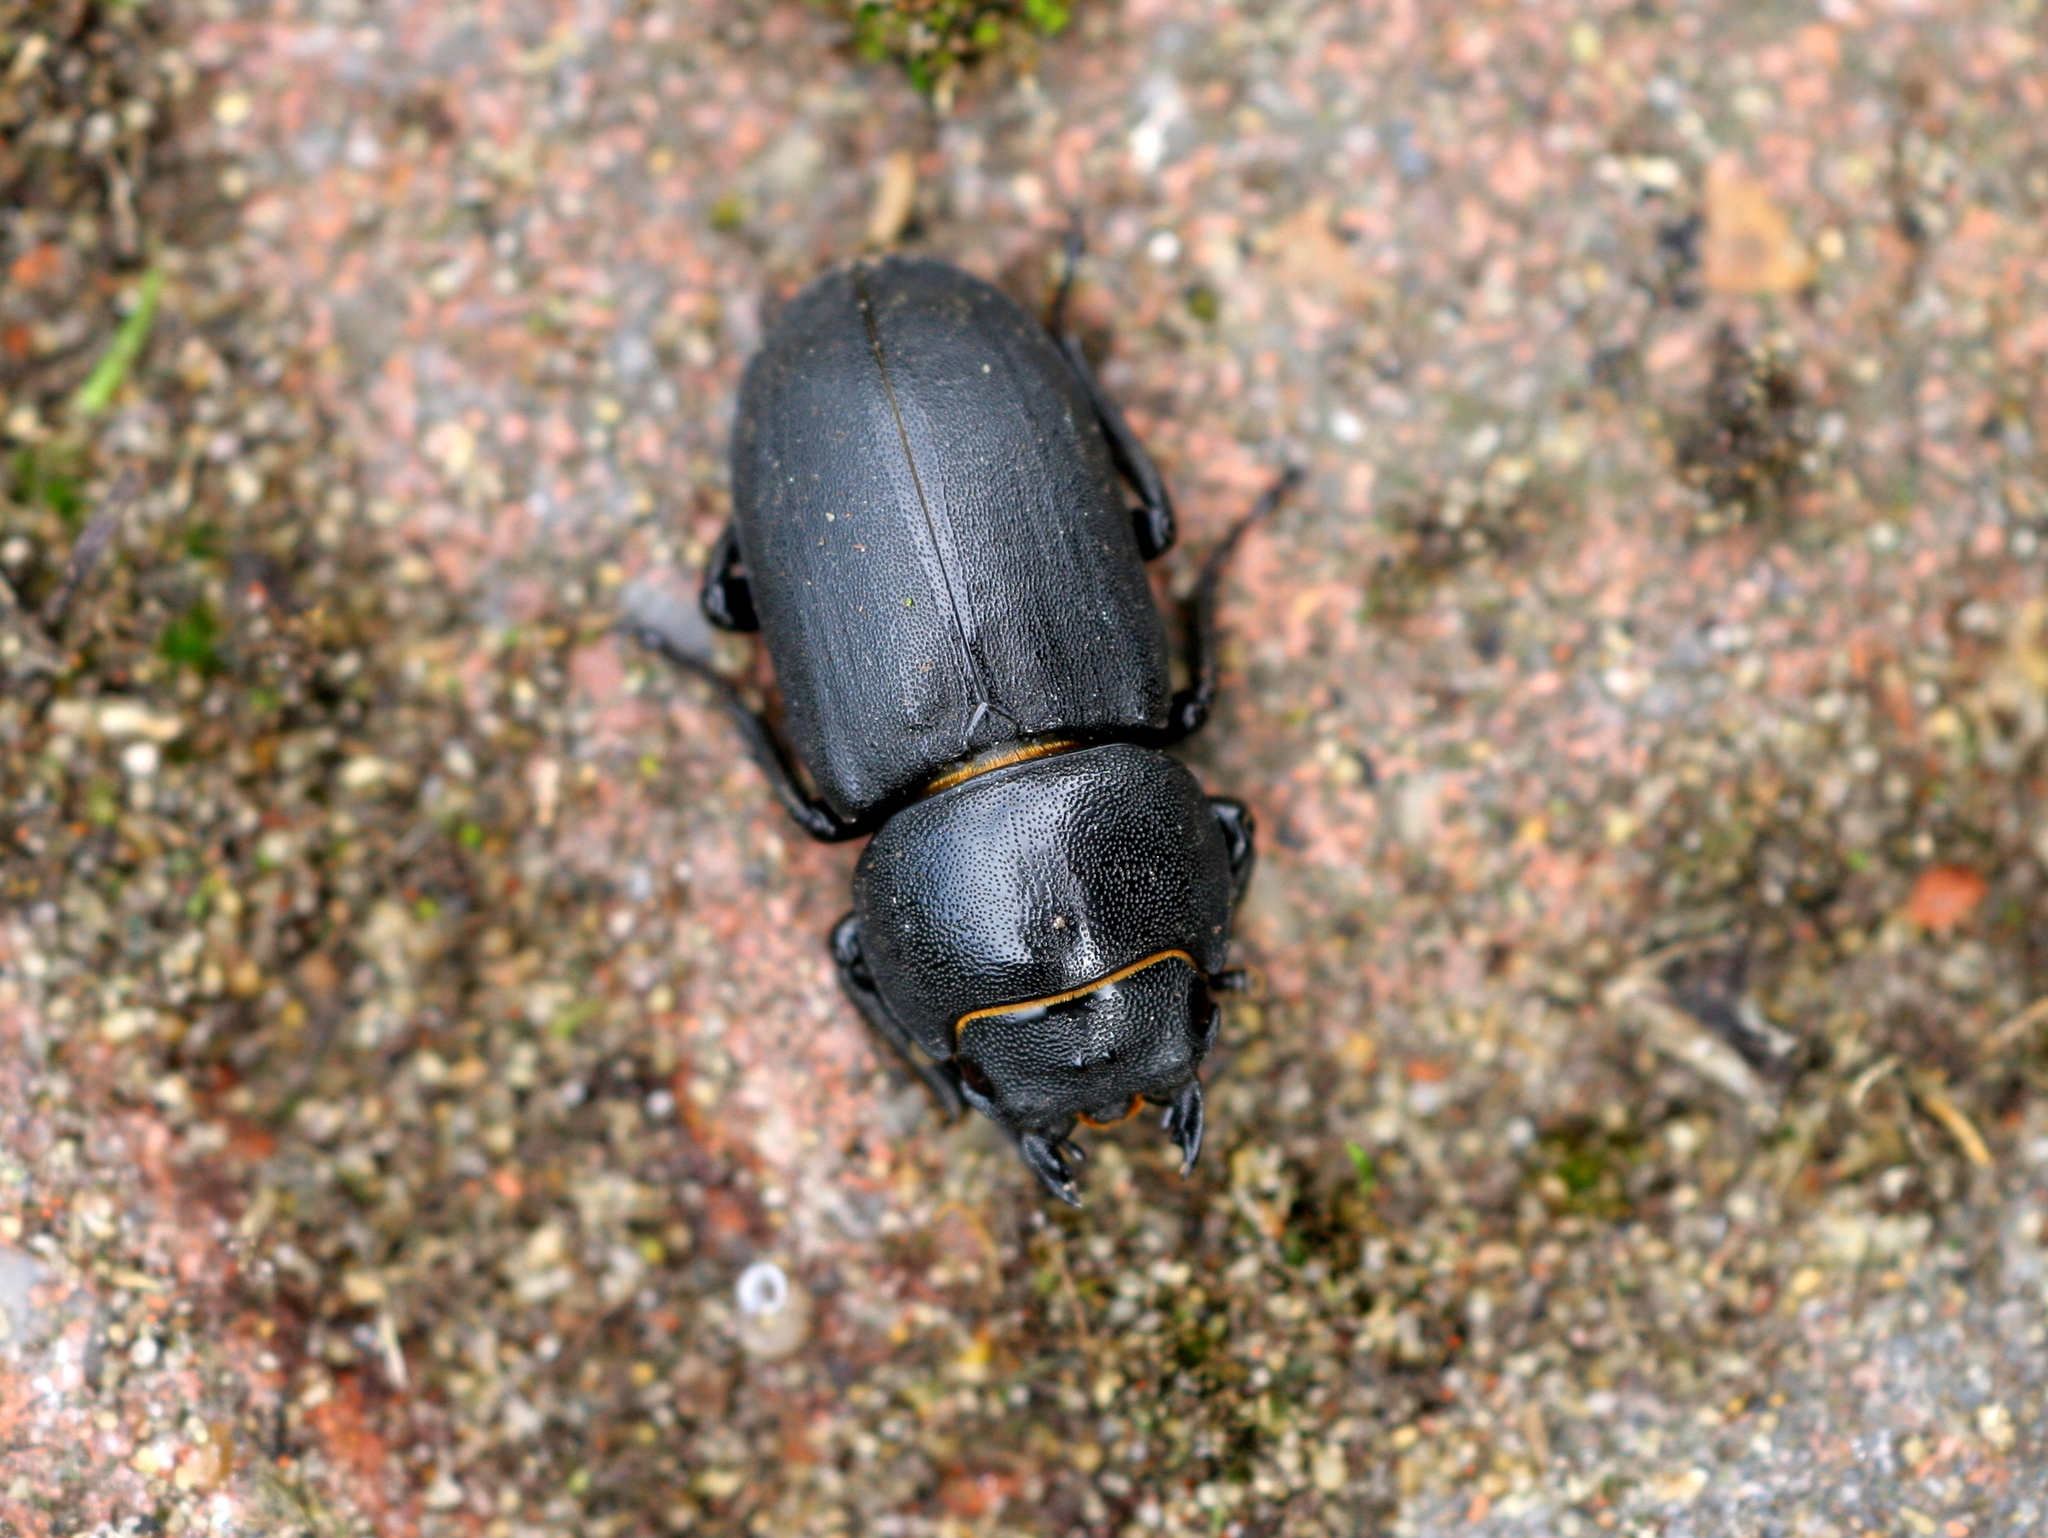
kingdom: Animalia
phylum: Arthropoda
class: Insecta
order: Coleoptera
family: Lucanidae
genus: Dorcus
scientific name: Dorcus parallelipipedus
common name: Lesser stag beetle
